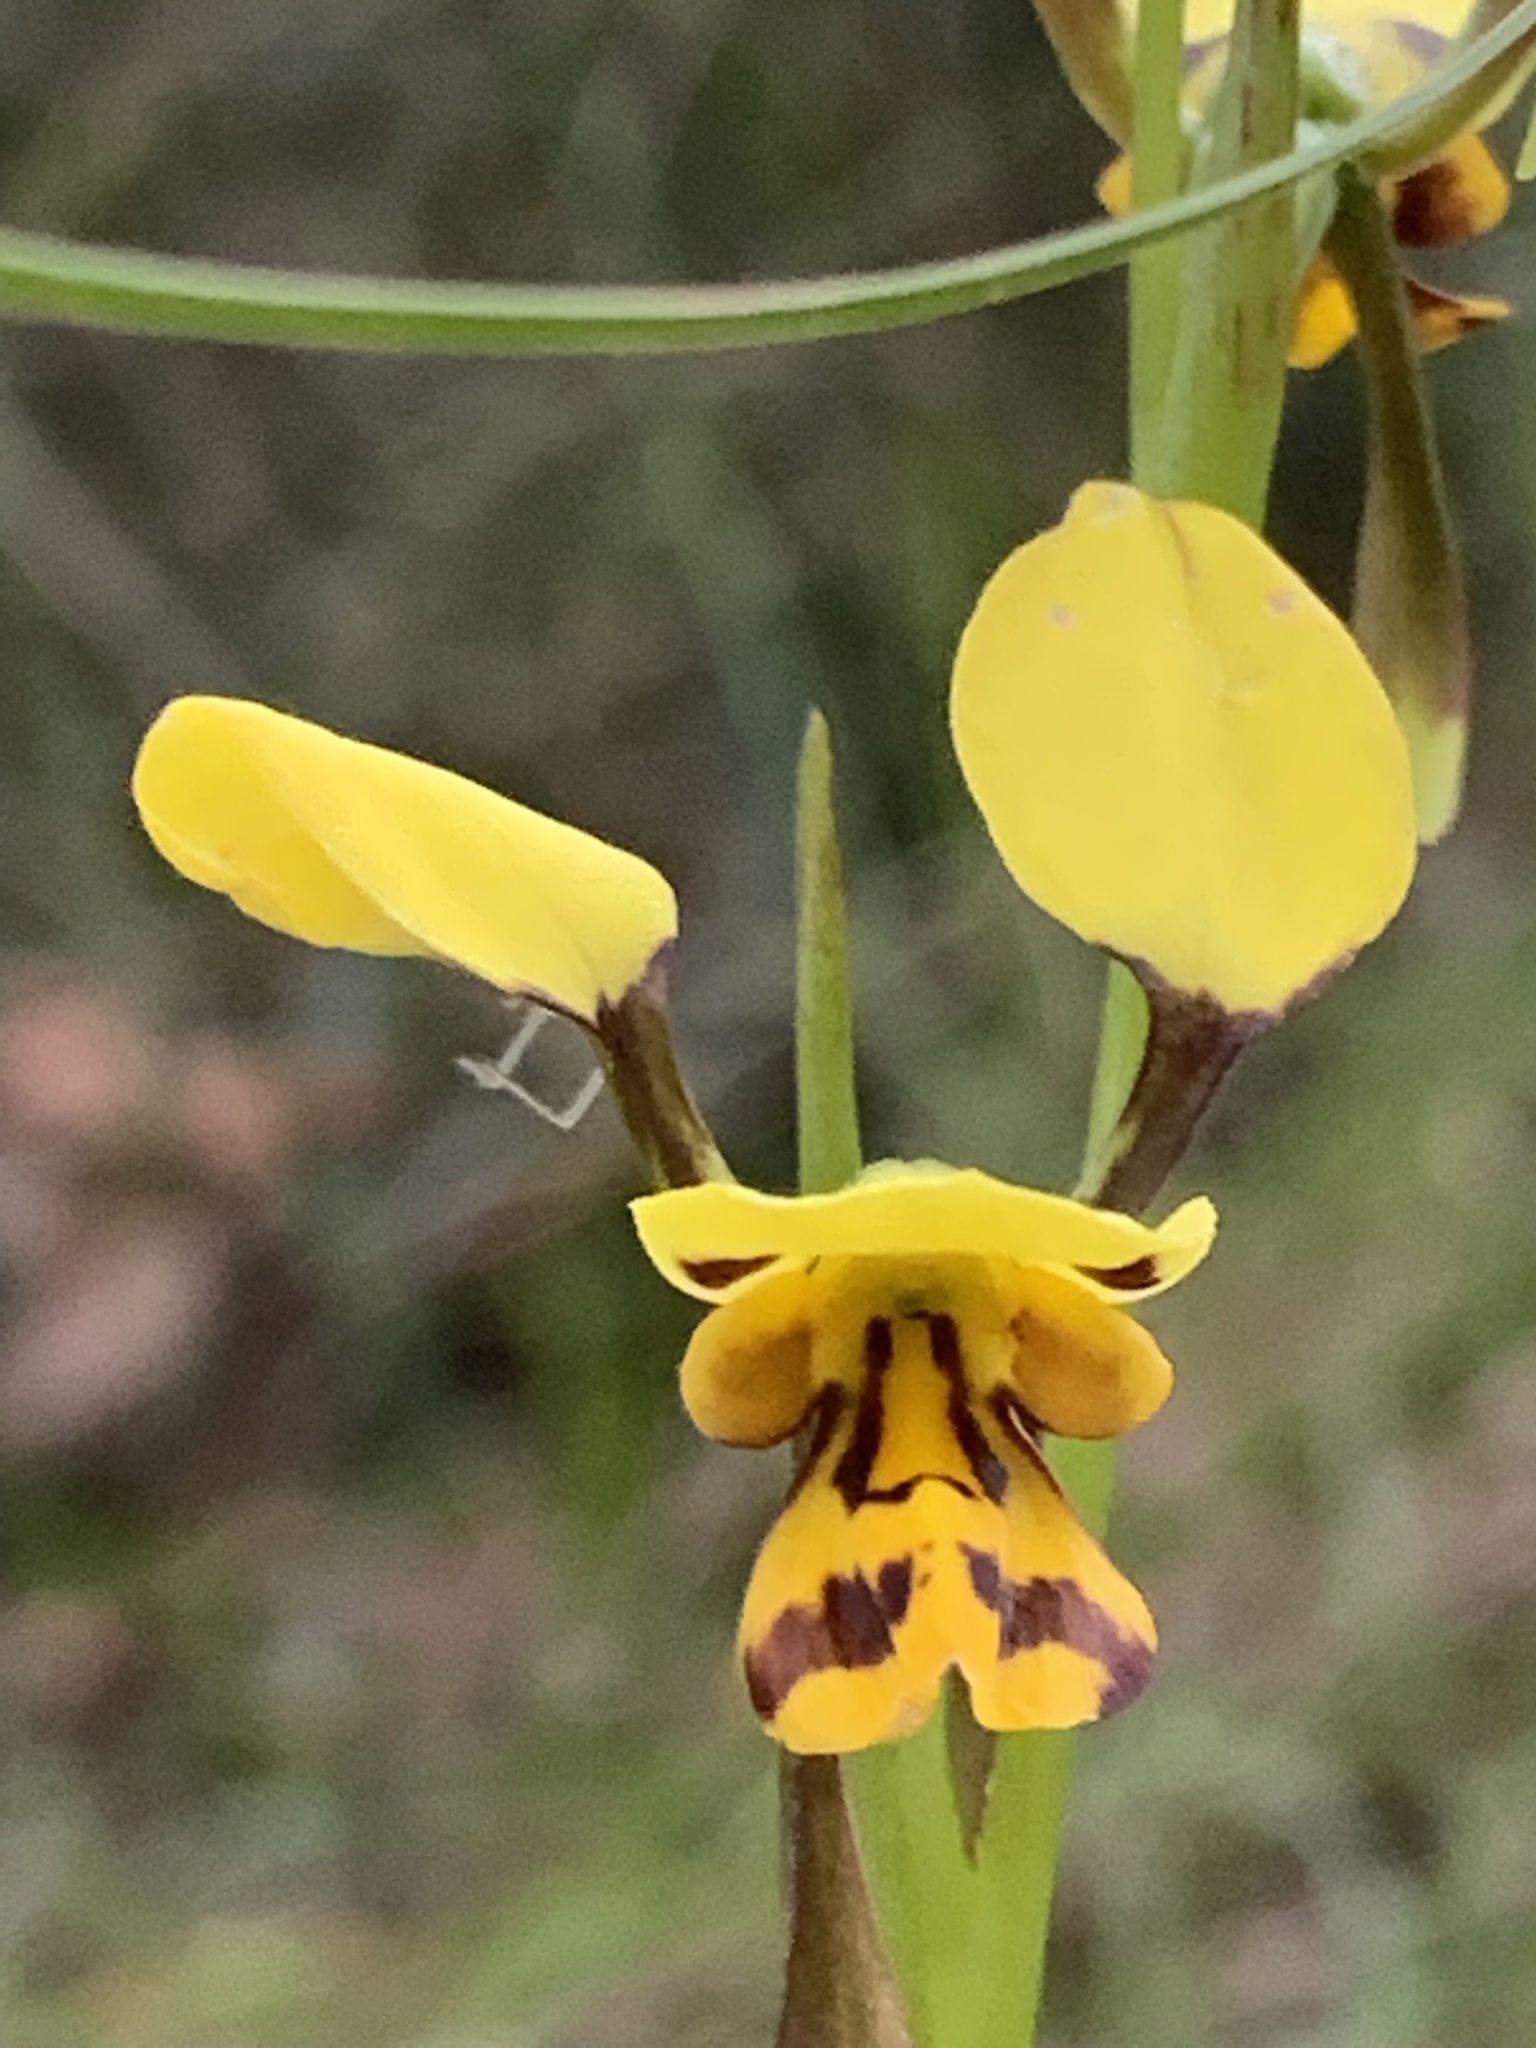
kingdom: Plantae
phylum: Tracheophyta
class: Liliopsida
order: Asparagales
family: Orchidaceae
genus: Diuris
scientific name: Diuris sulphurea
